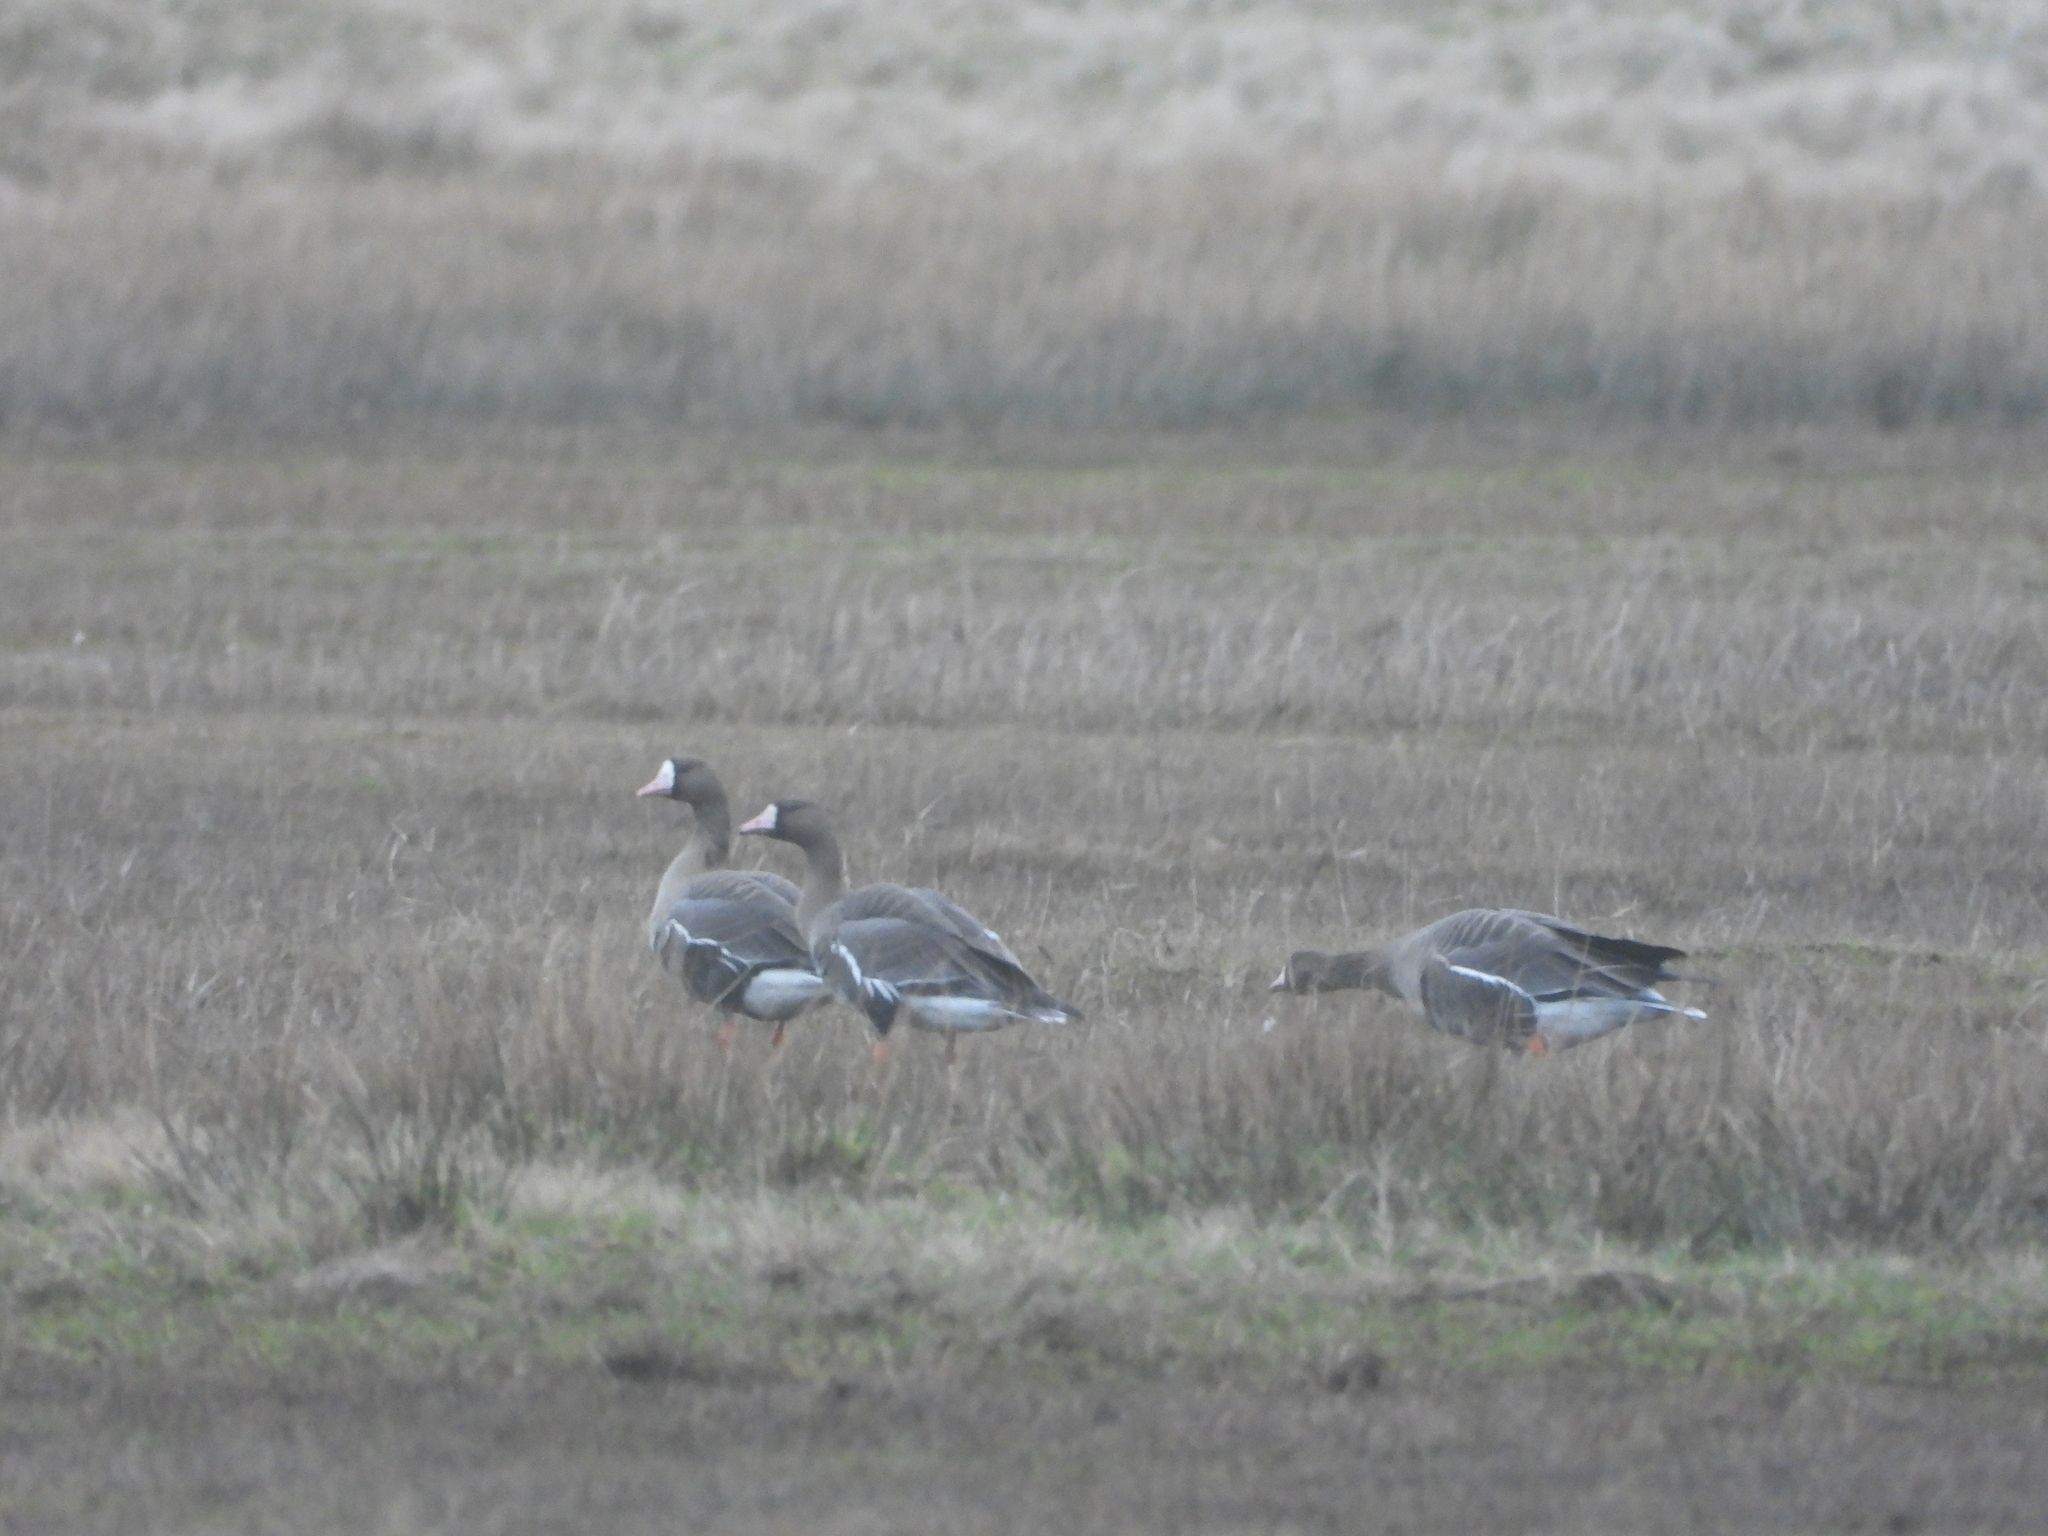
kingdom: Animalia
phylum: Chordata
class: Aves
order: Anseriformes
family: Anatidae
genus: Anser
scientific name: Anser albifrons
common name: Greater white-fronted goose
